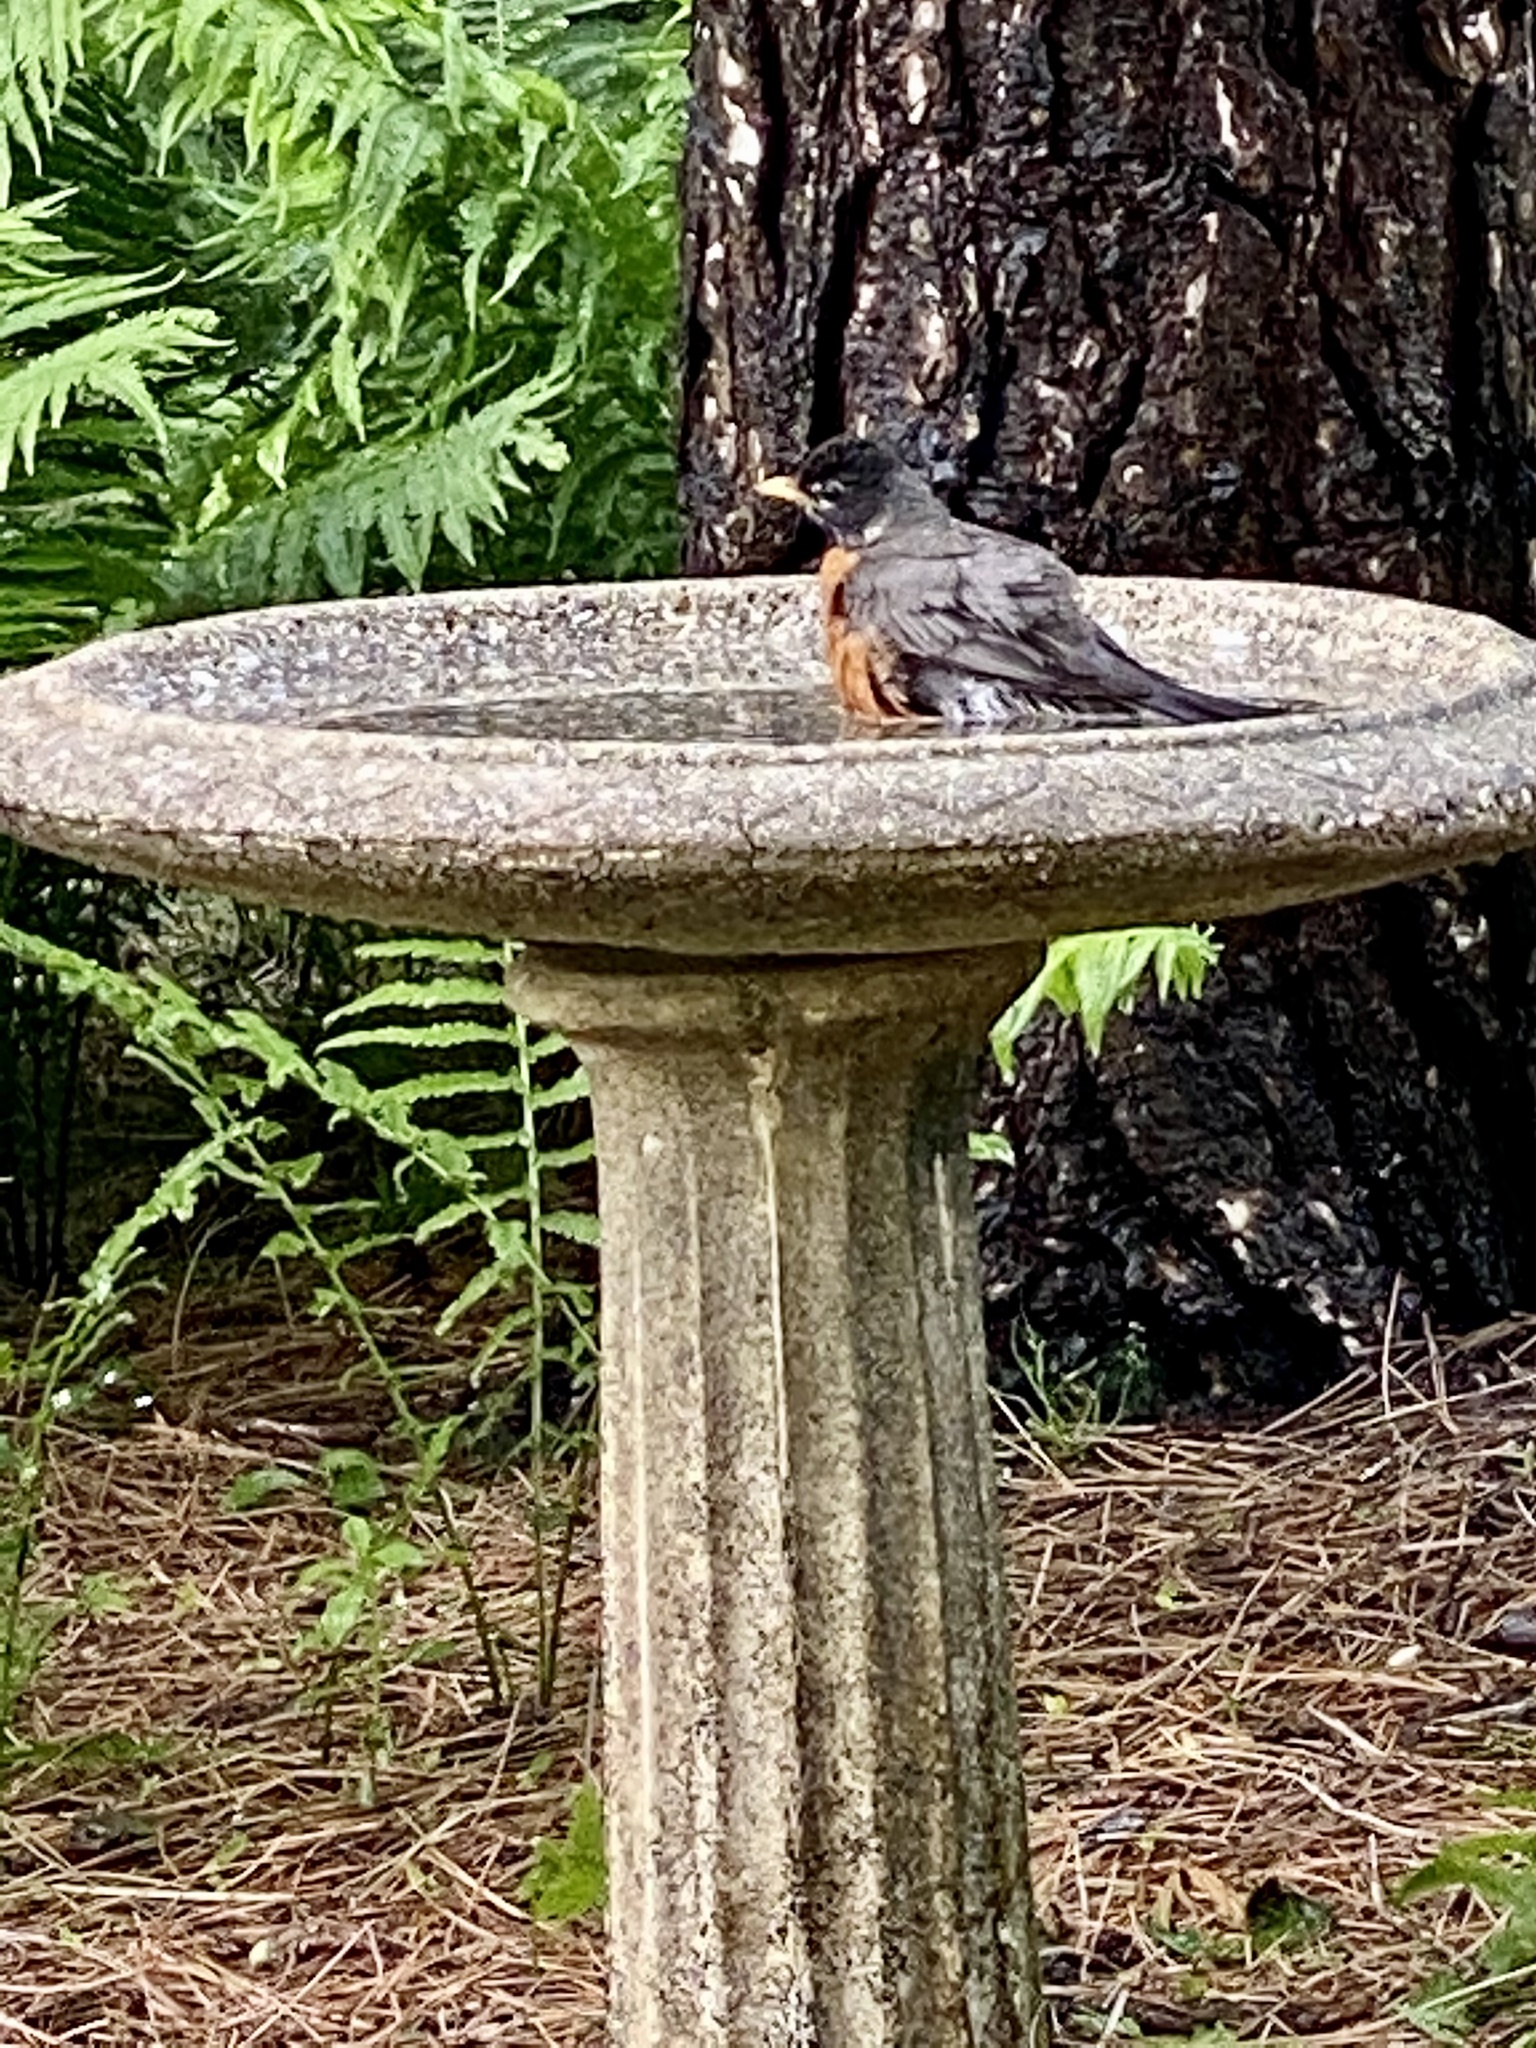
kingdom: Animalia
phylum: Chordata
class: Aves
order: Passeriformes
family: Turdidae
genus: Turdus
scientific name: Turdus migratorius
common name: American robin
